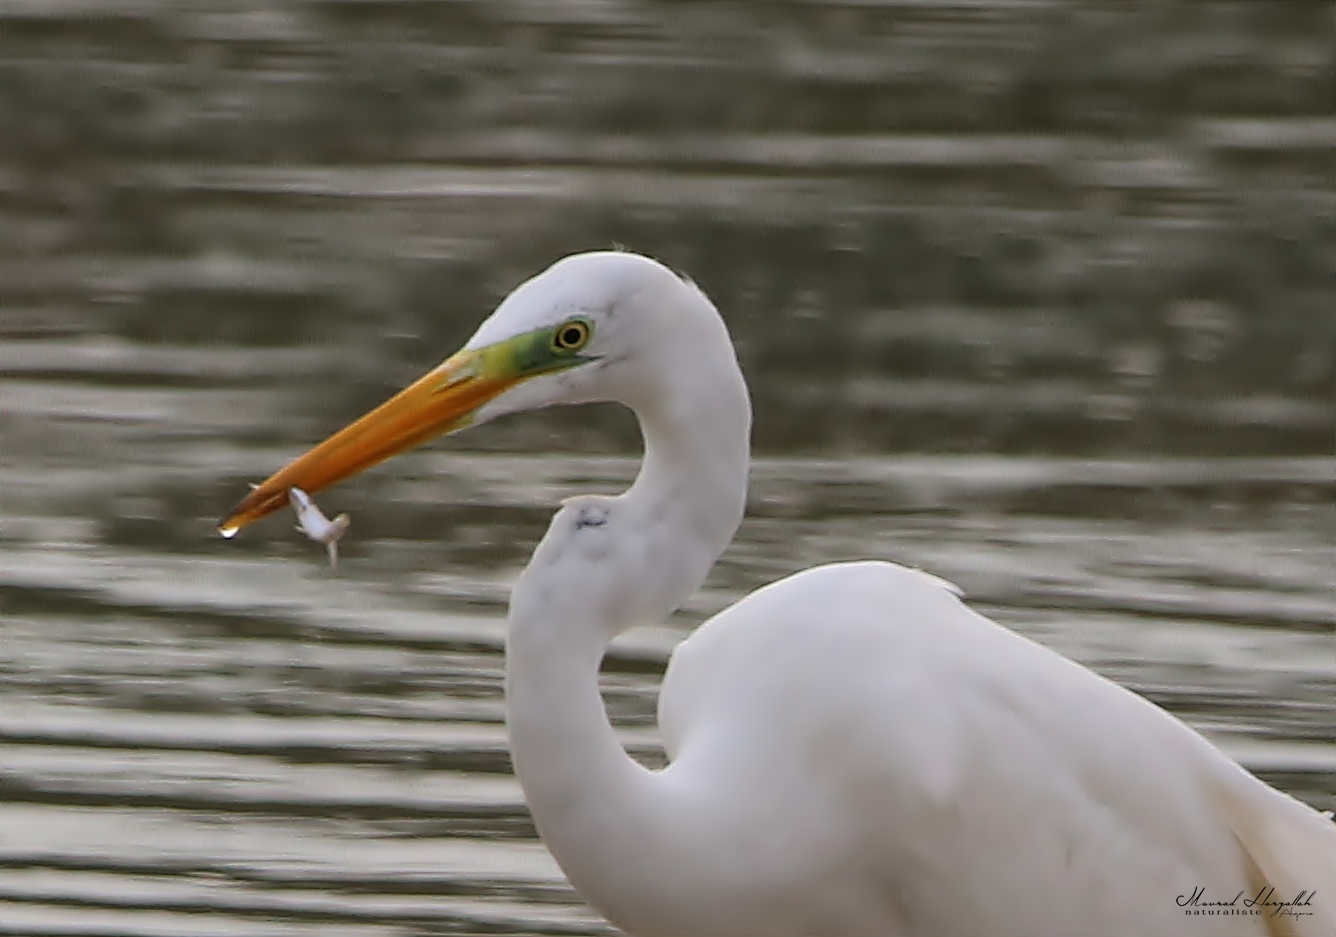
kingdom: Animalia
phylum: Chordata
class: Aves
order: Pelecaniformes
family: Ardeidae
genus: Ardea
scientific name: Ardea alba
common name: Great egret
